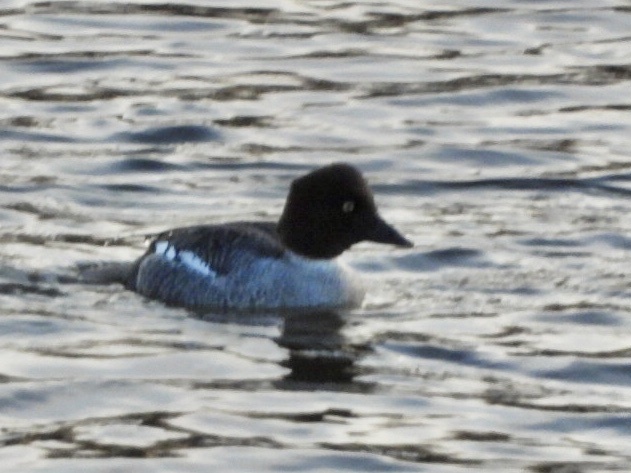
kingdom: Animalia
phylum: Chordata
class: Aves
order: Anseriformes
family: Anatidae
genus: Bucephala
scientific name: Bucephala clangula
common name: Common goldeneye
